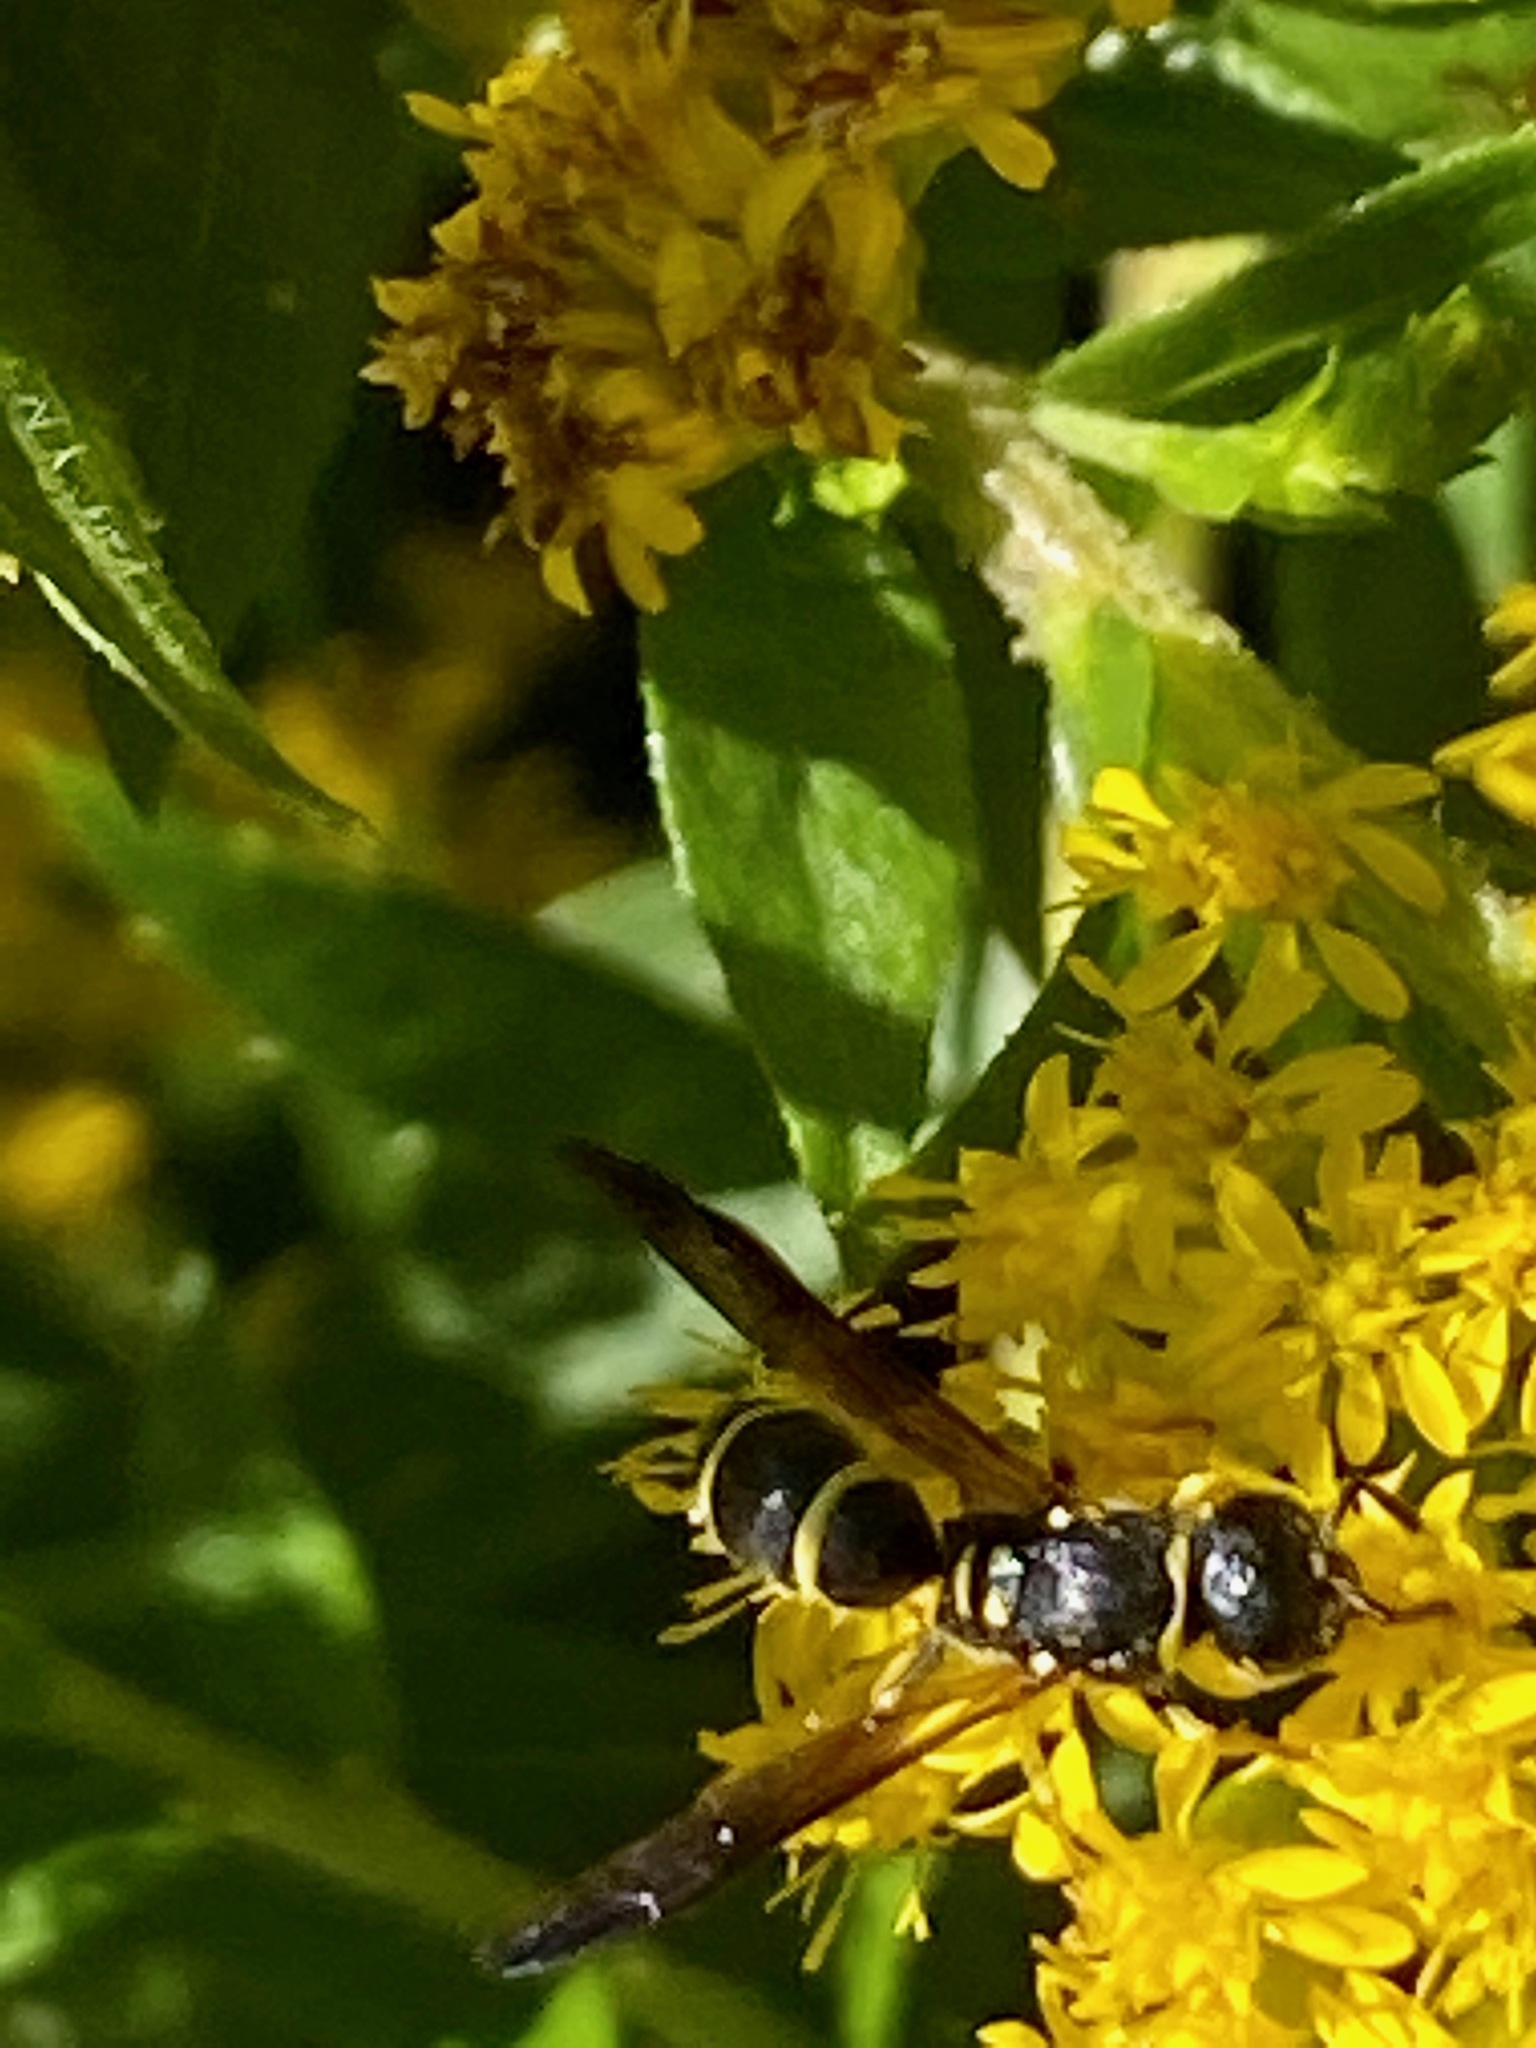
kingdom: Animalia
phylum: Arthropoda
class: Insecta
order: Hymenoptera
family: Vespidae
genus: Ancistrocerus
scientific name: Ancistrocerus adiabatus
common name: Bramble mason wasp
